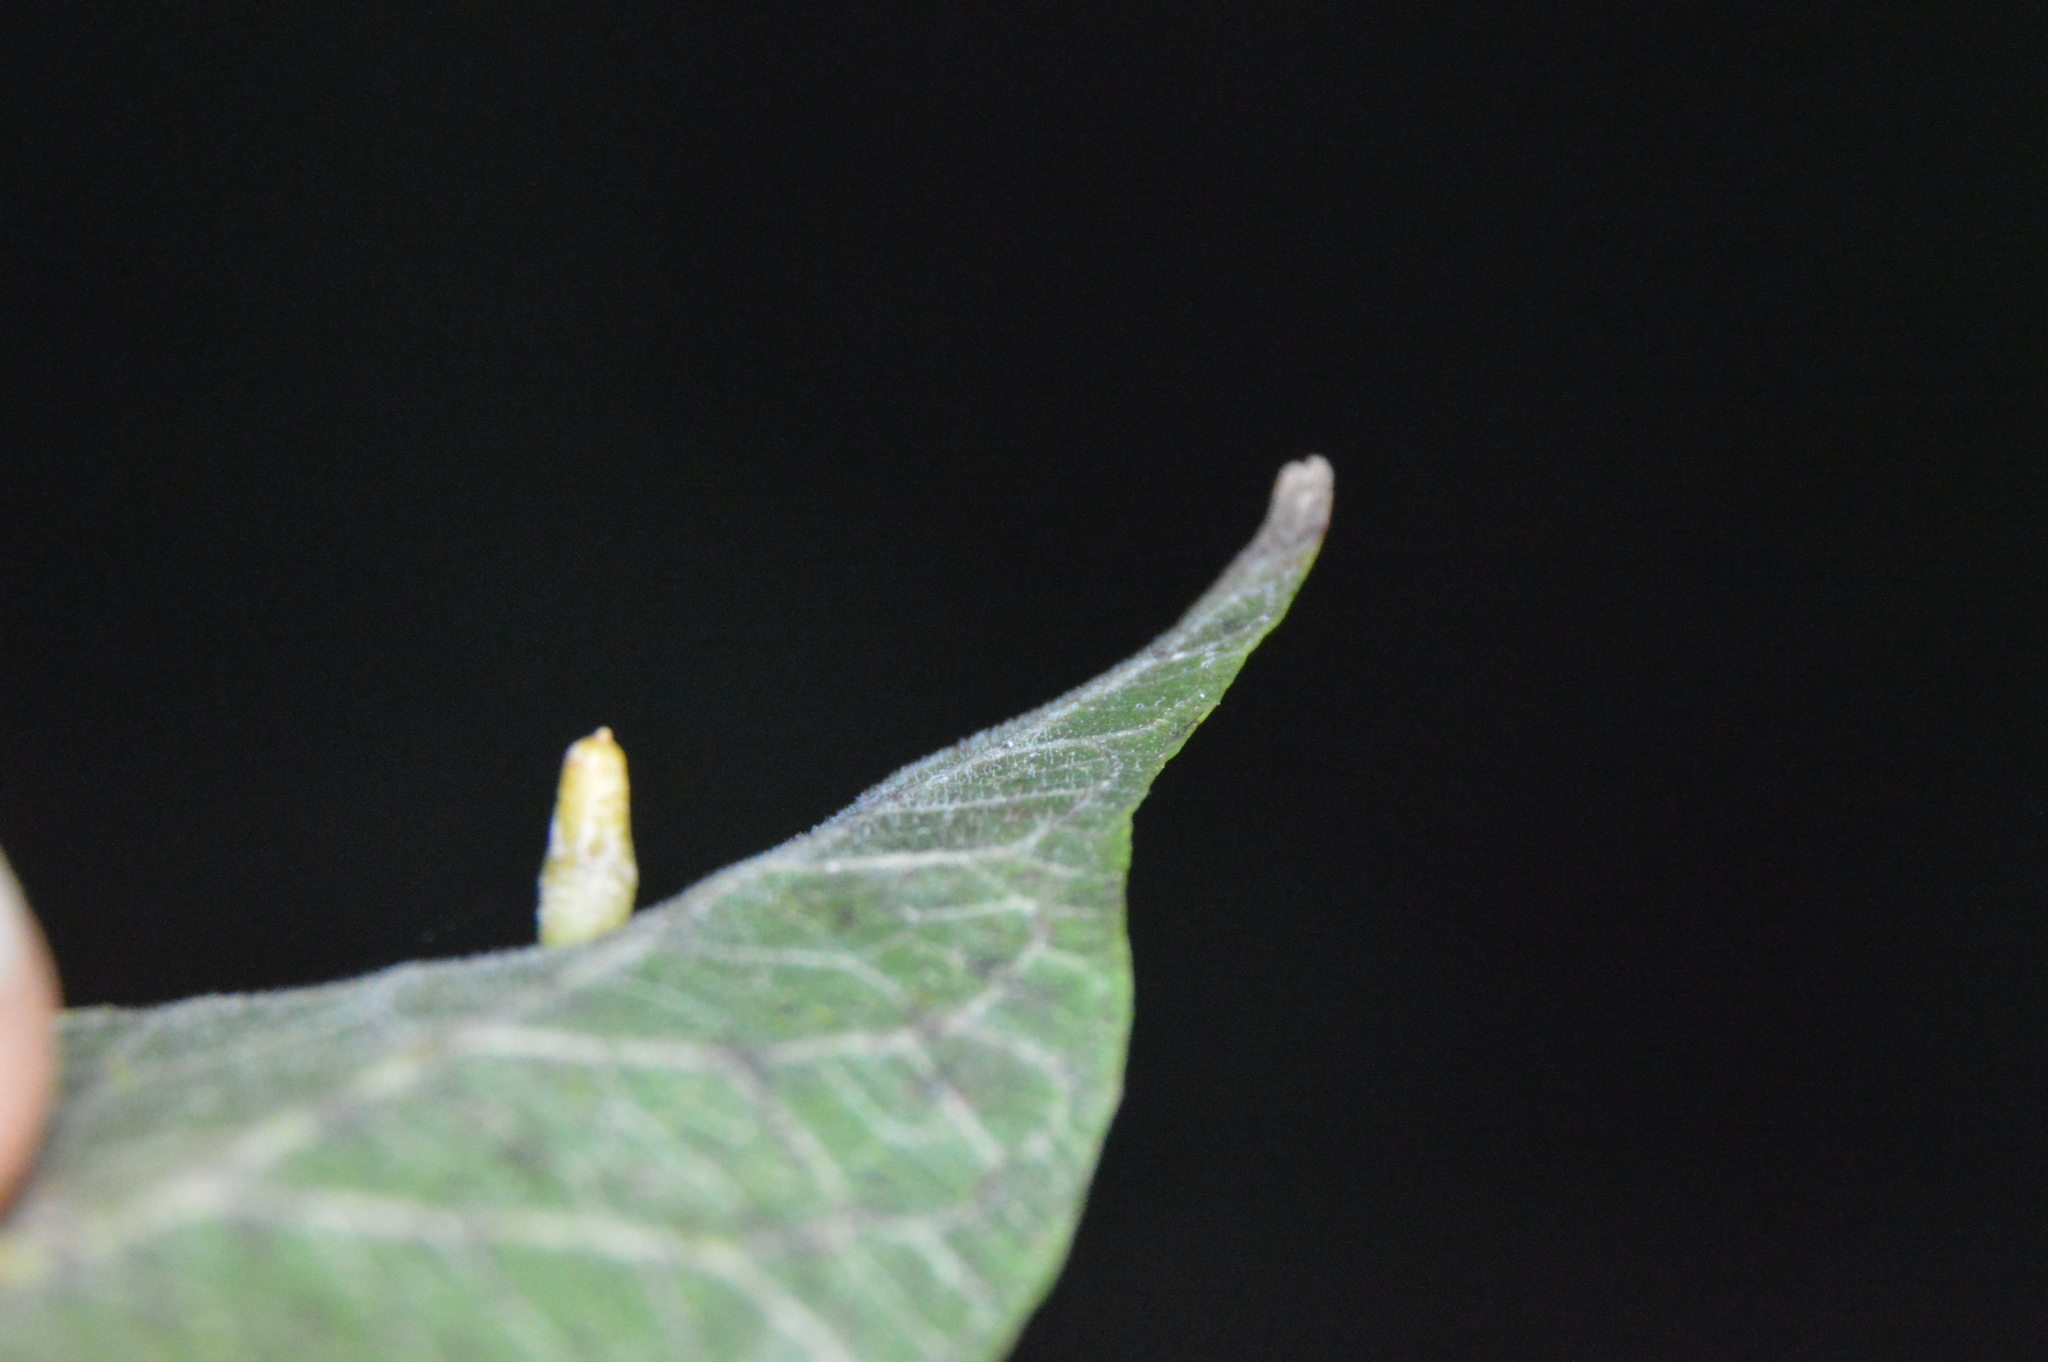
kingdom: Animalia
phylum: Arthropoda
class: Insecta
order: Diptera
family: Cecidomyiidae
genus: Celticecis
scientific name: Celticecis aciculata
